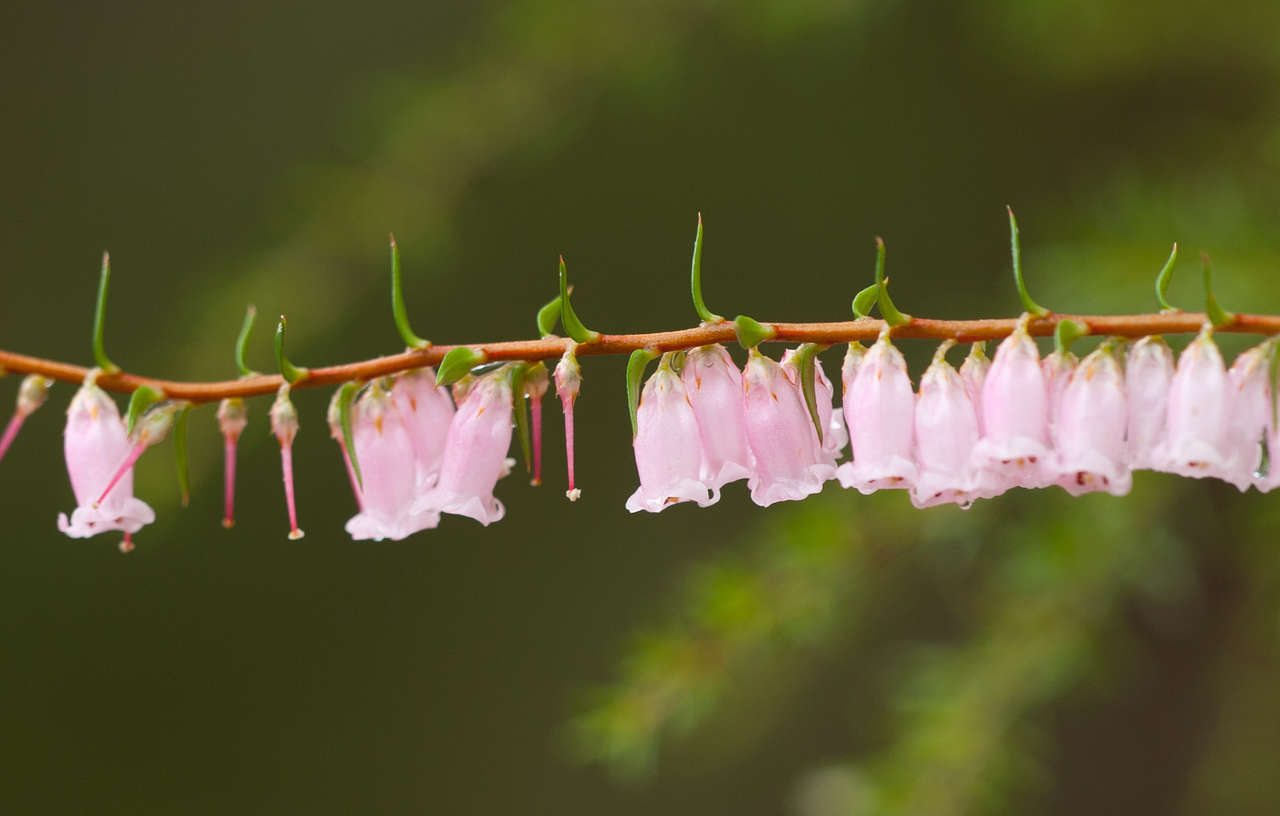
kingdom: Plantae
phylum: Tracheophyta
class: Magnoliopsida
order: Ericales
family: Ericaceae
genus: Epacris
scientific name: Epacris impressa
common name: Common-heath
